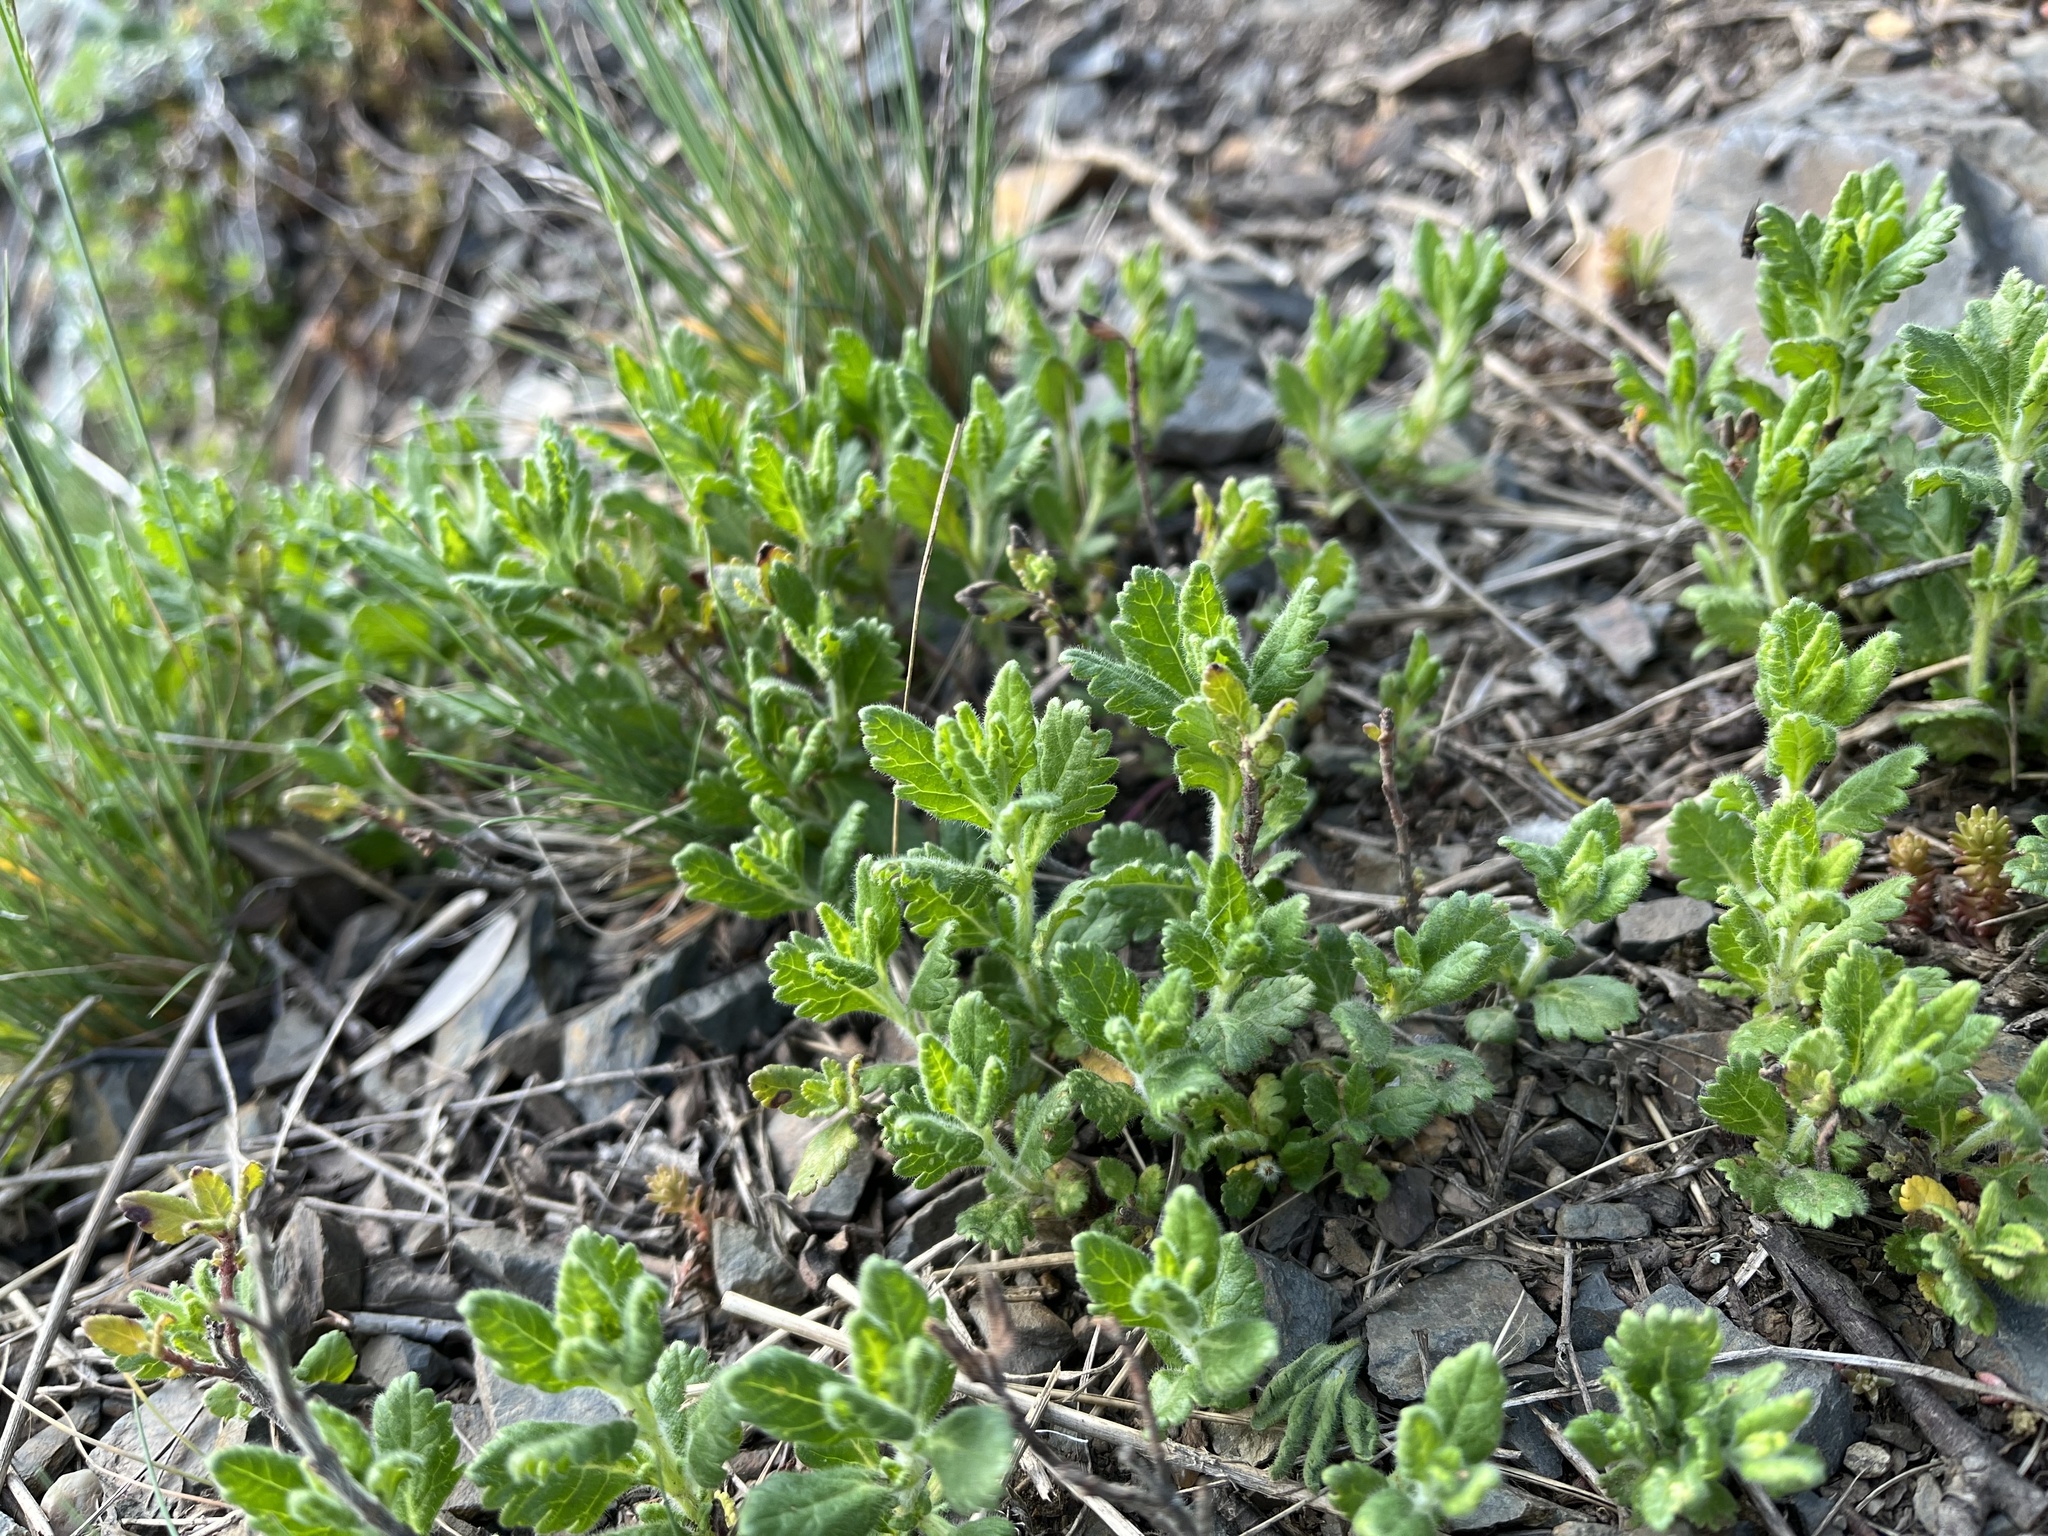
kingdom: Plantae
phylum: Tracheophyta
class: Magnoliopsida
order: Lamiales
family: Lamiaceae
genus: Teucrium
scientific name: Teucrium chamaedrys
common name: Wall germander
